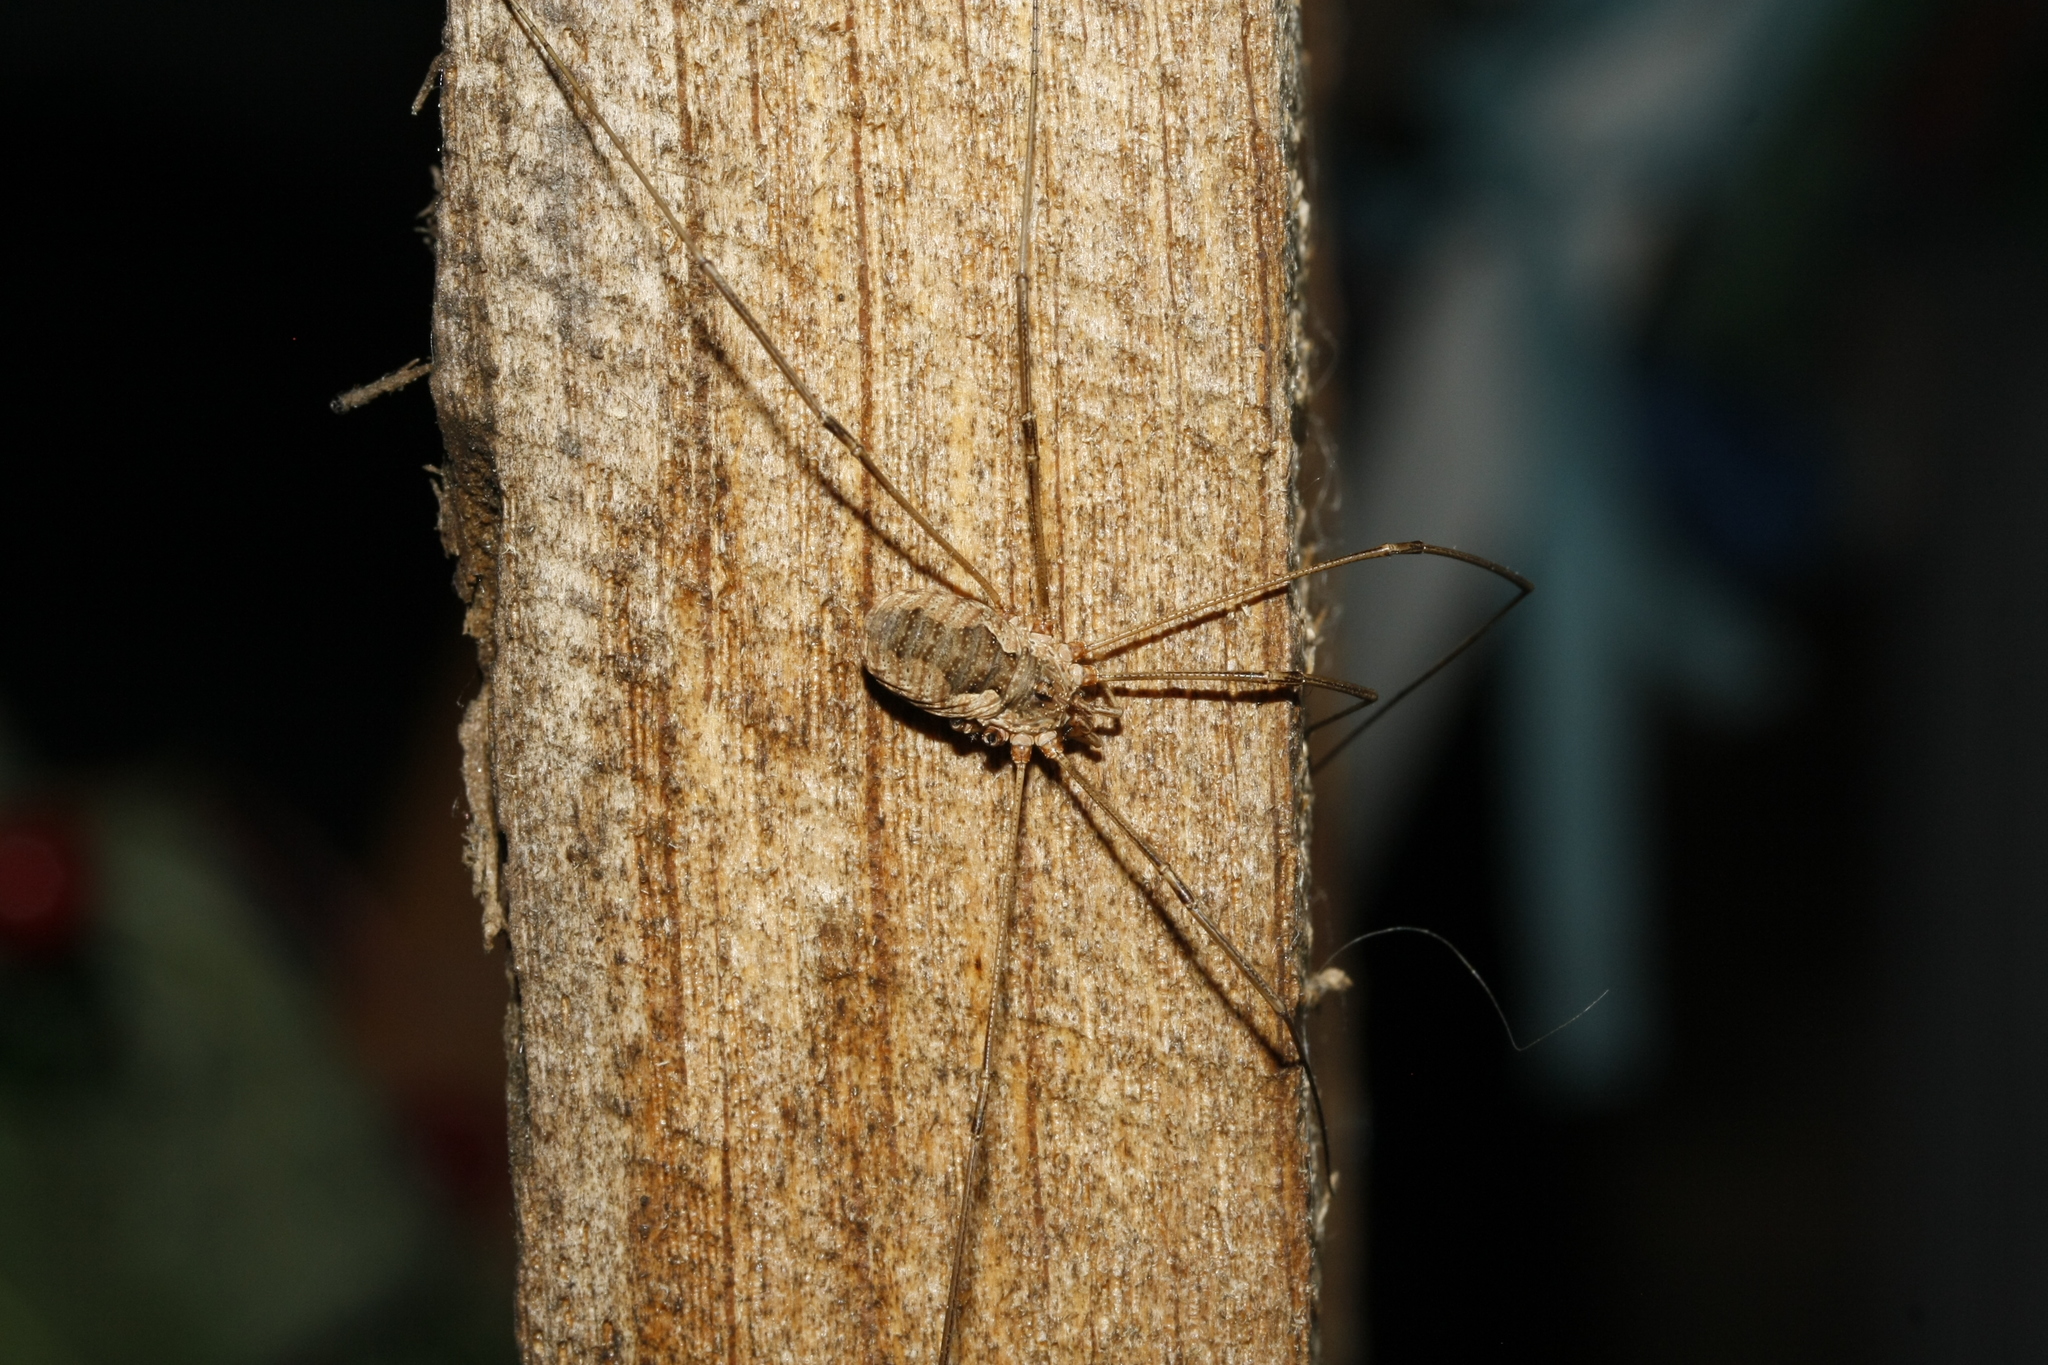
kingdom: Animalia
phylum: Arthropoda
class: Arachnida
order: Opiliones
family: Phalangiidae
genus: Phalangium
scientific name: Phalangium opilio
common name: Daddy longleg
